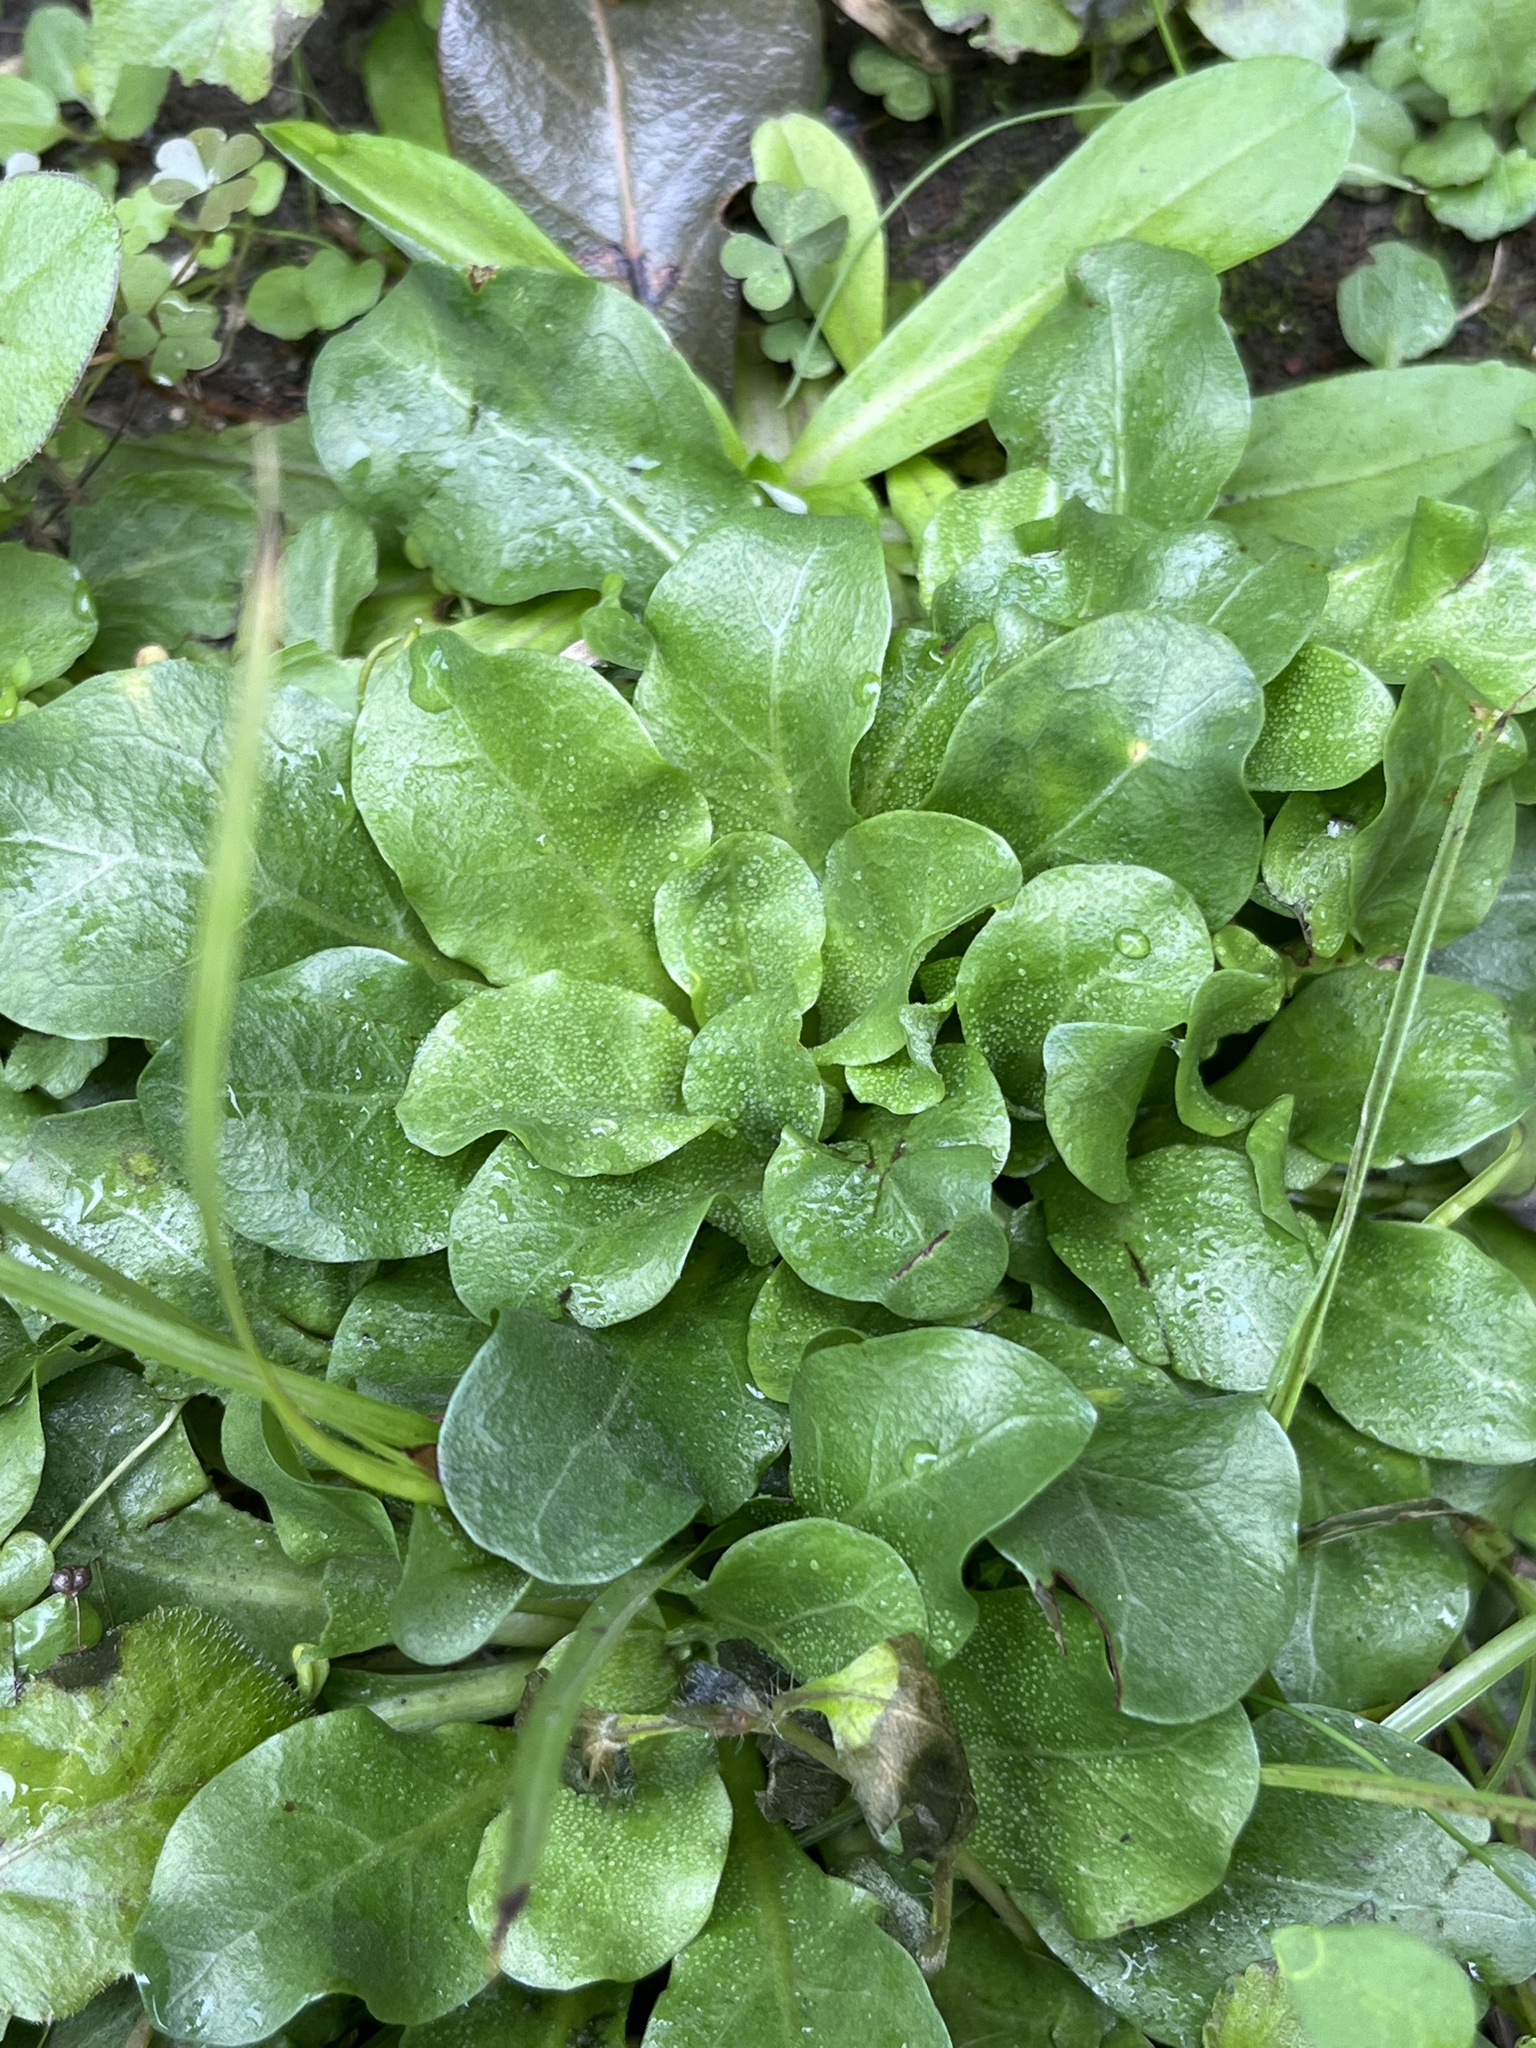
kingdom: Plantae
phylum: Tracheophyta
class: Magnoliopsida
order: Ericales
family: Primulaceae
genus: Samolus
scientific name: Samolus parviflorus
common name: False water pimpernel
